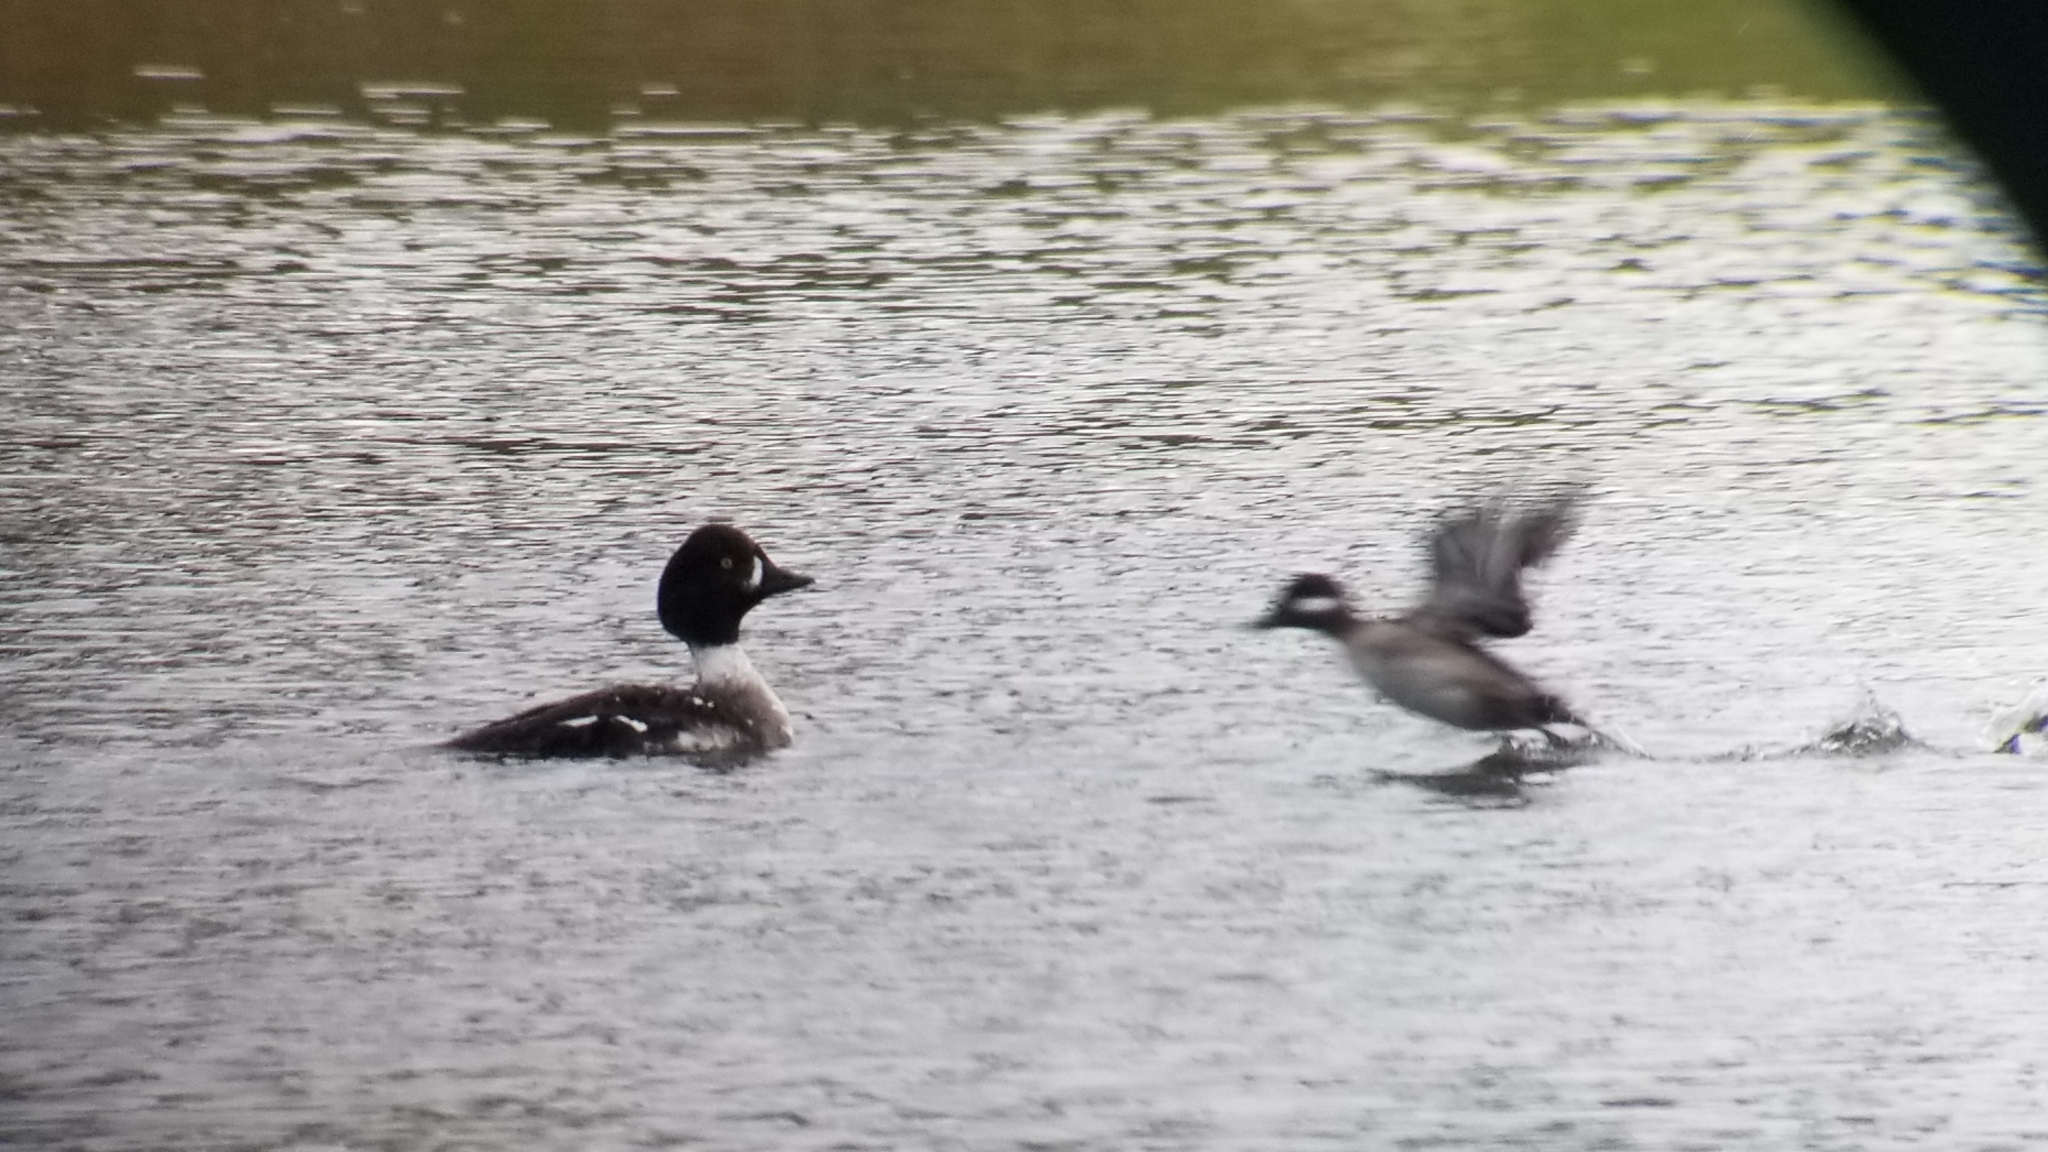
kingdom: Animalia
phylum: Chordata
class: Aves
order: Anseriformes
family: Anatidae
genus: Bucephala
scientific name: Bucephala albeola
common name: Bufflehead
